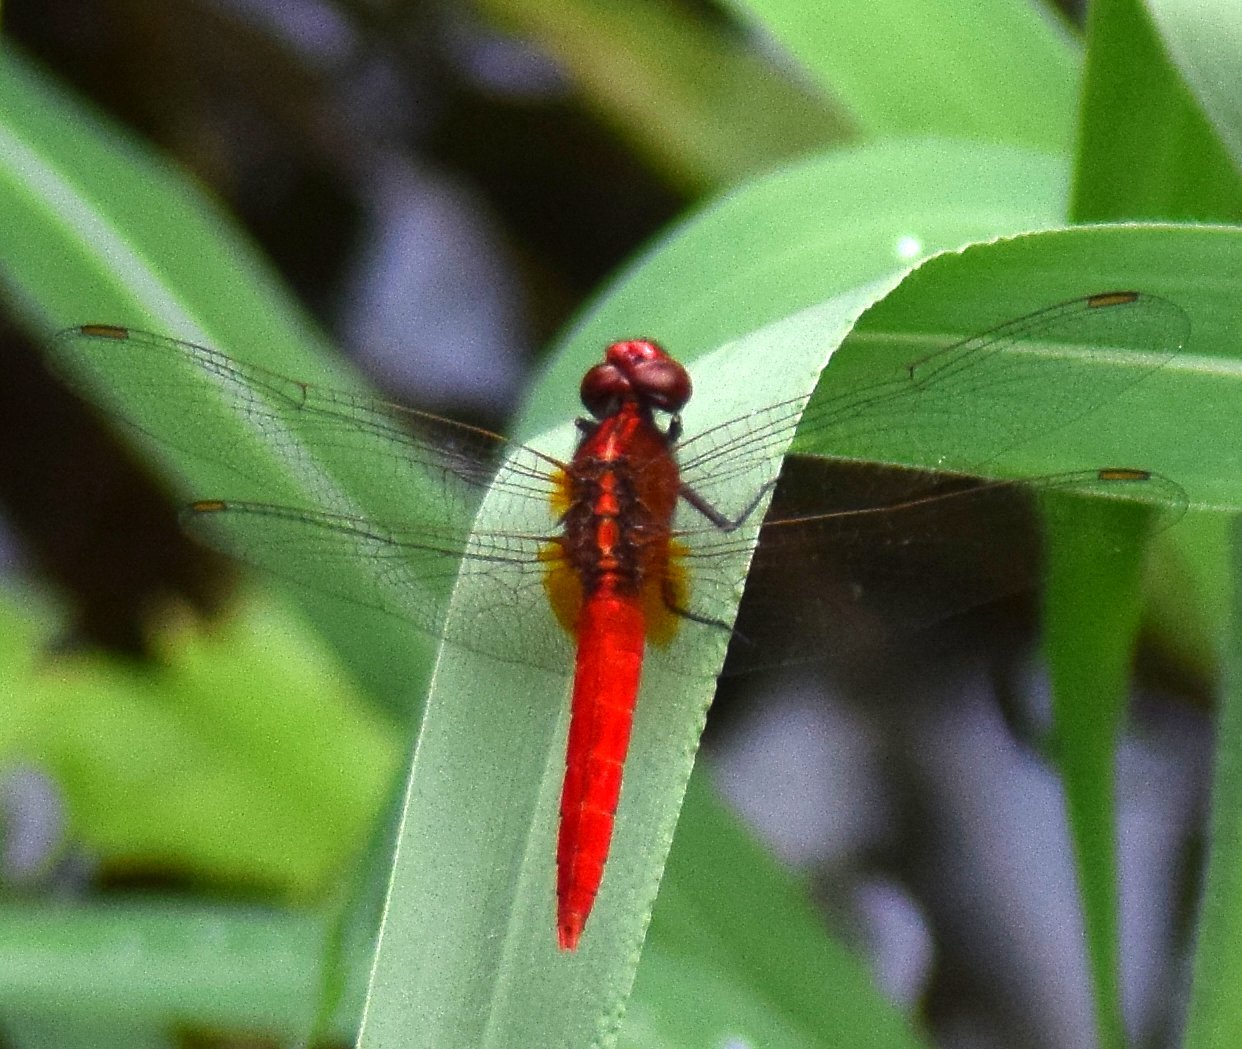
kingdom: Animalia
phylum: Arthropoda
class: Insecta
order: Odonata
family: Libellulidae
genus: Rhodothemis
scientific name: Rhodothemis rufa
